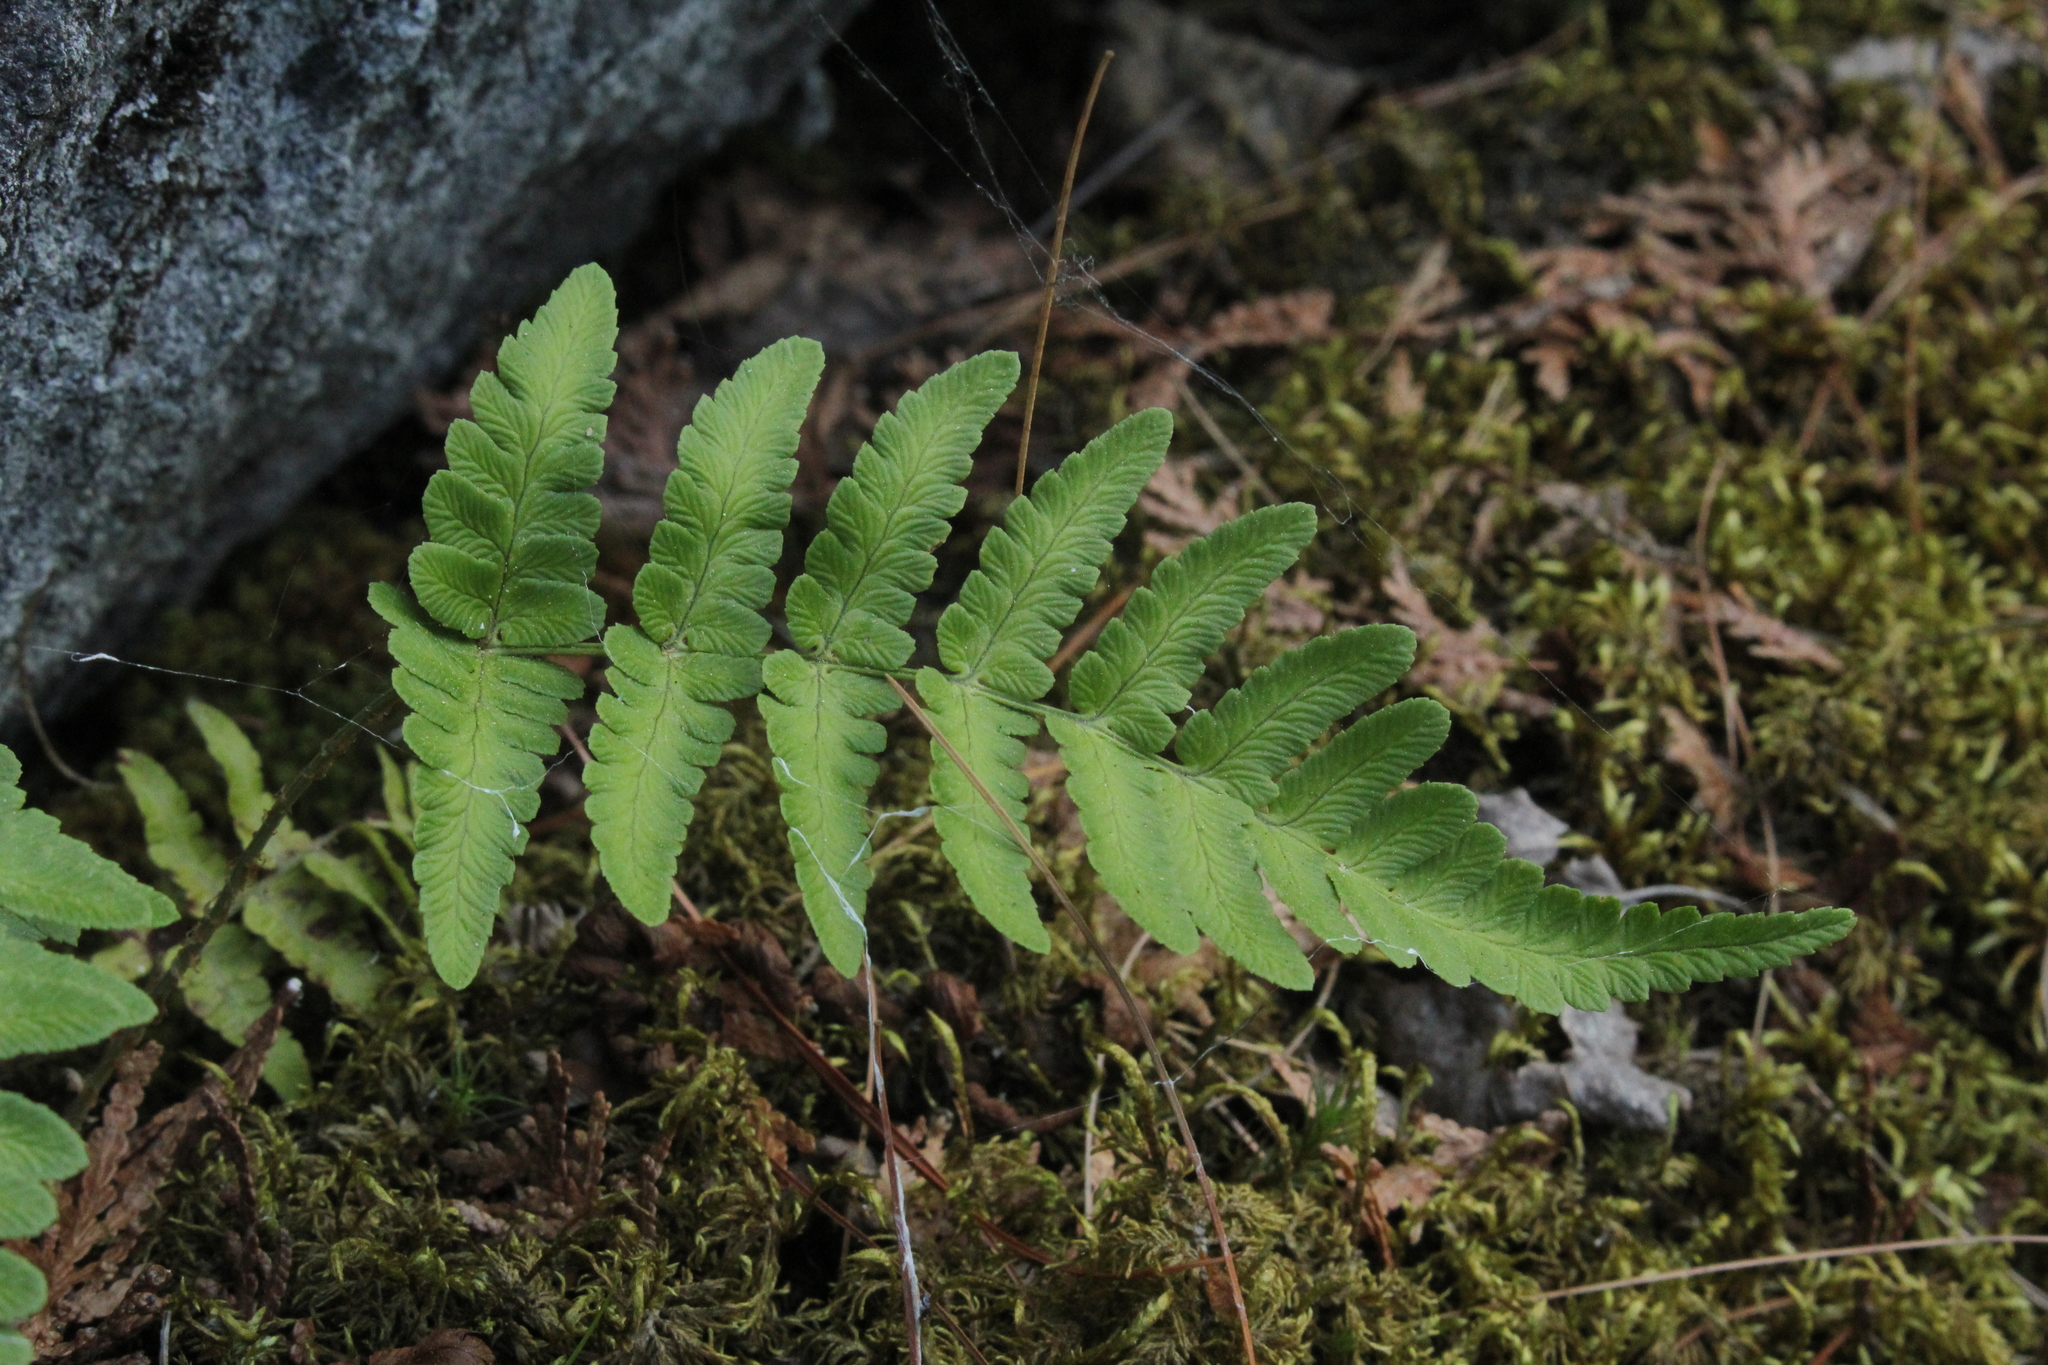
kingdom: Plantae
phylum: Tracheophyta
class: Polypodiopsida
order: Polypodiales
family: Dryopteridaceae
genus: Dryopteris
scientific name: Dryopteris marginalis
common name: Marginal wood fern
